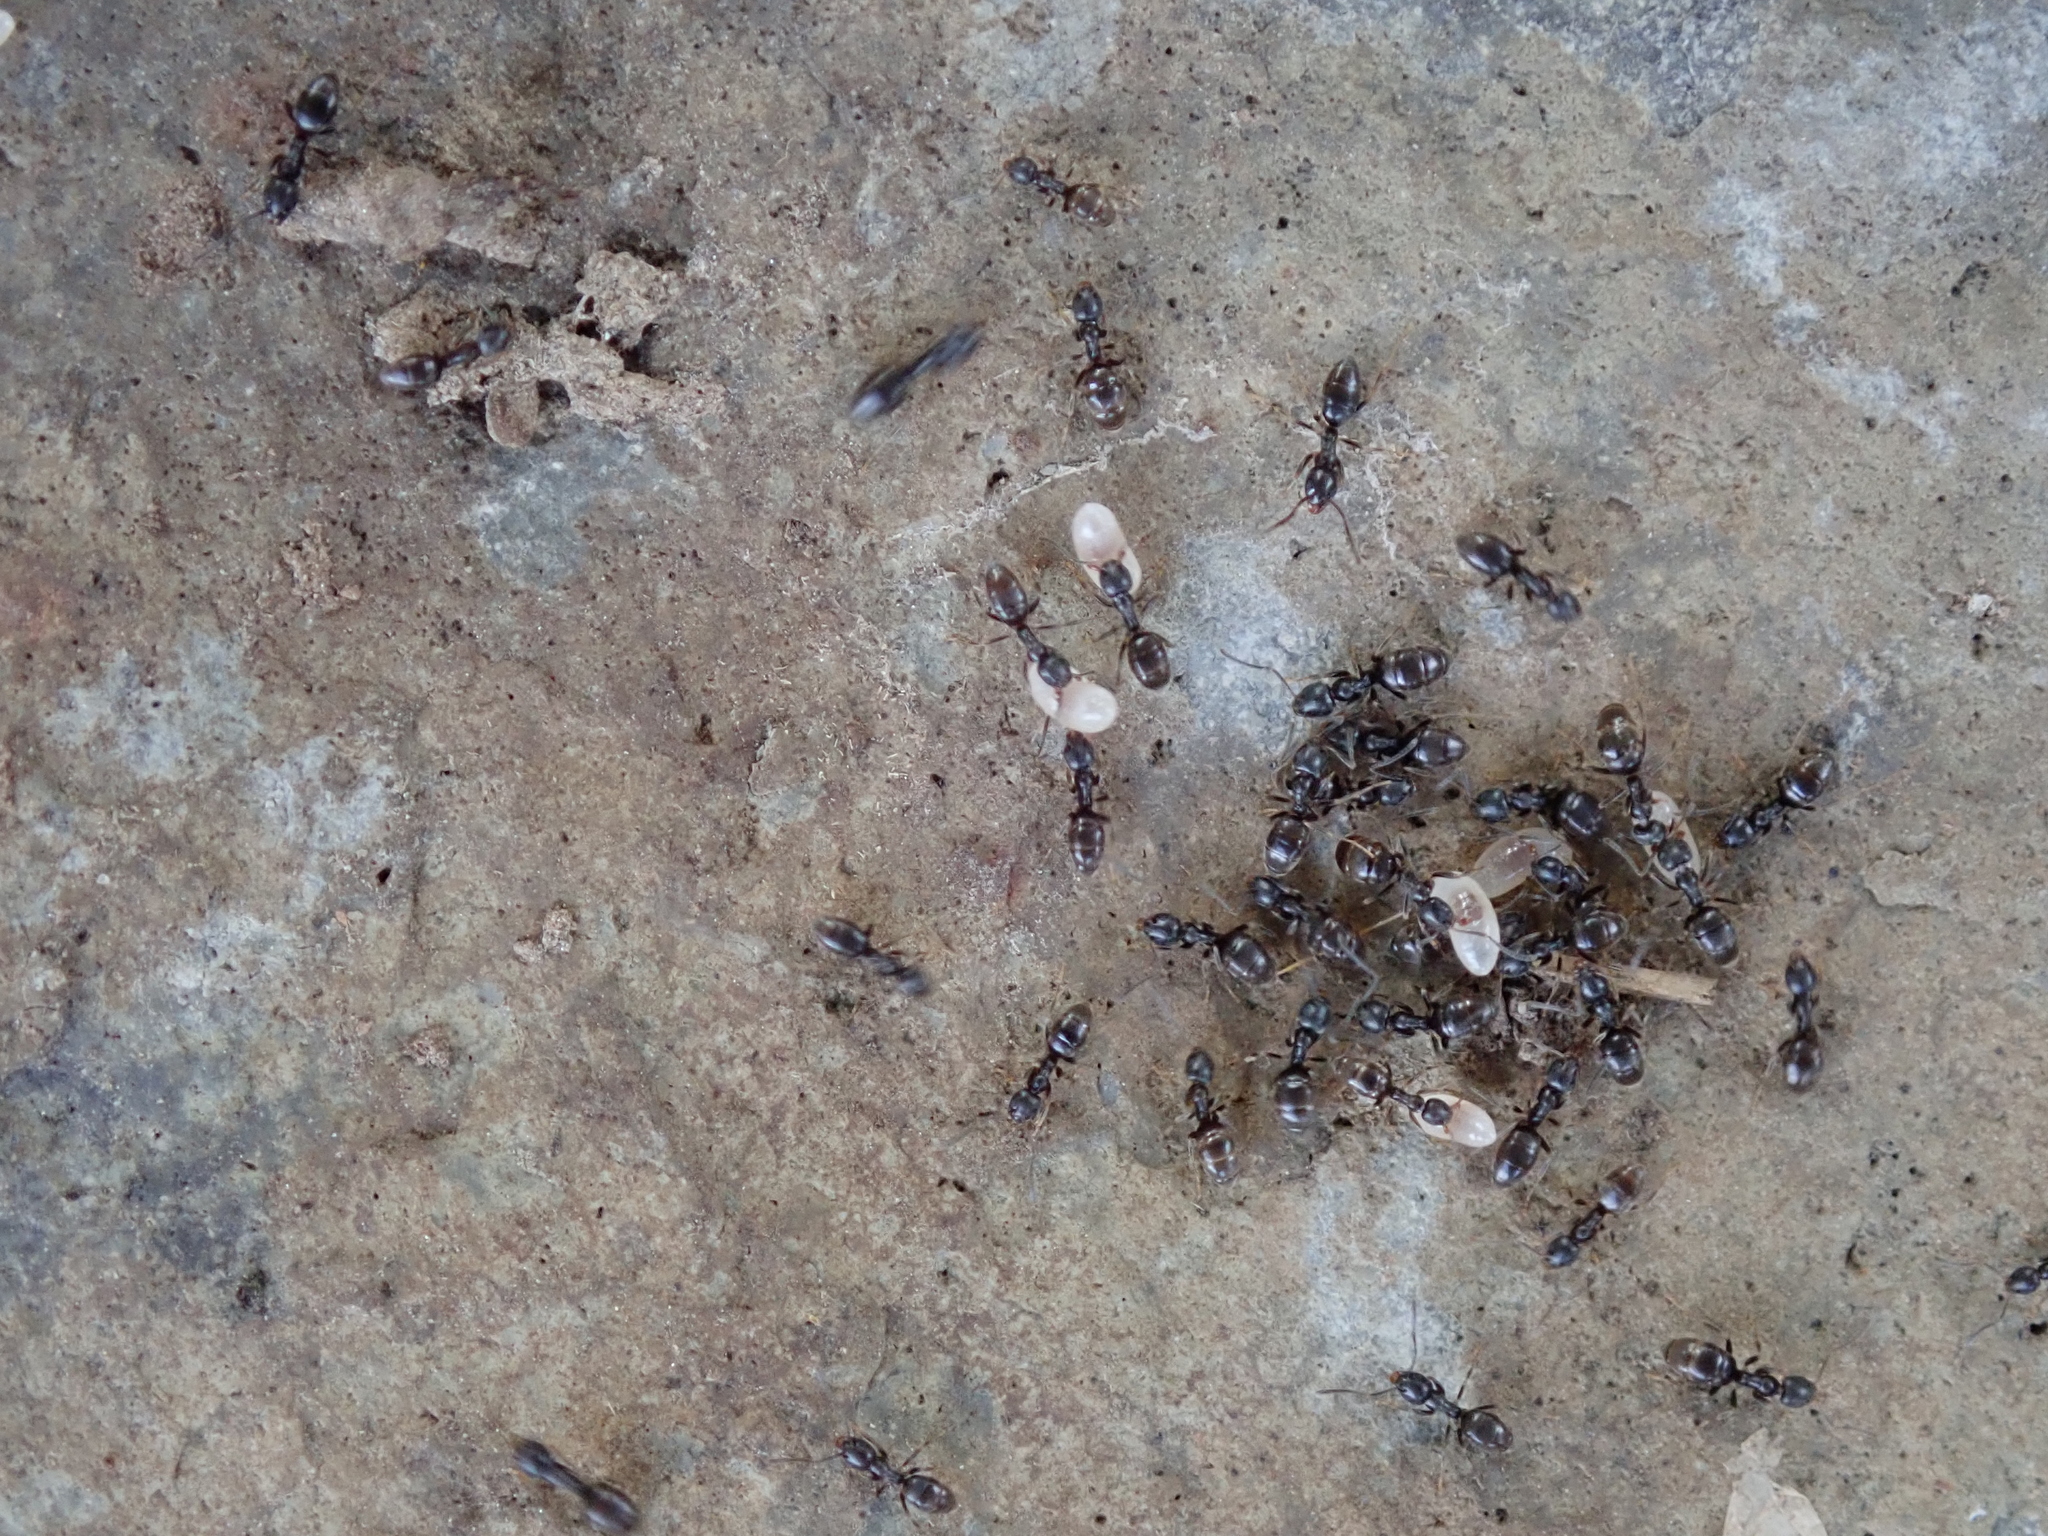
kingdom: Animalia
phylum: Arthropoda
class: Insecta
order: Hymenoptera
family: Formicidae
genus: Tapinoma
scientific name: Tapinoma sessile
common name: Odorous house ant
